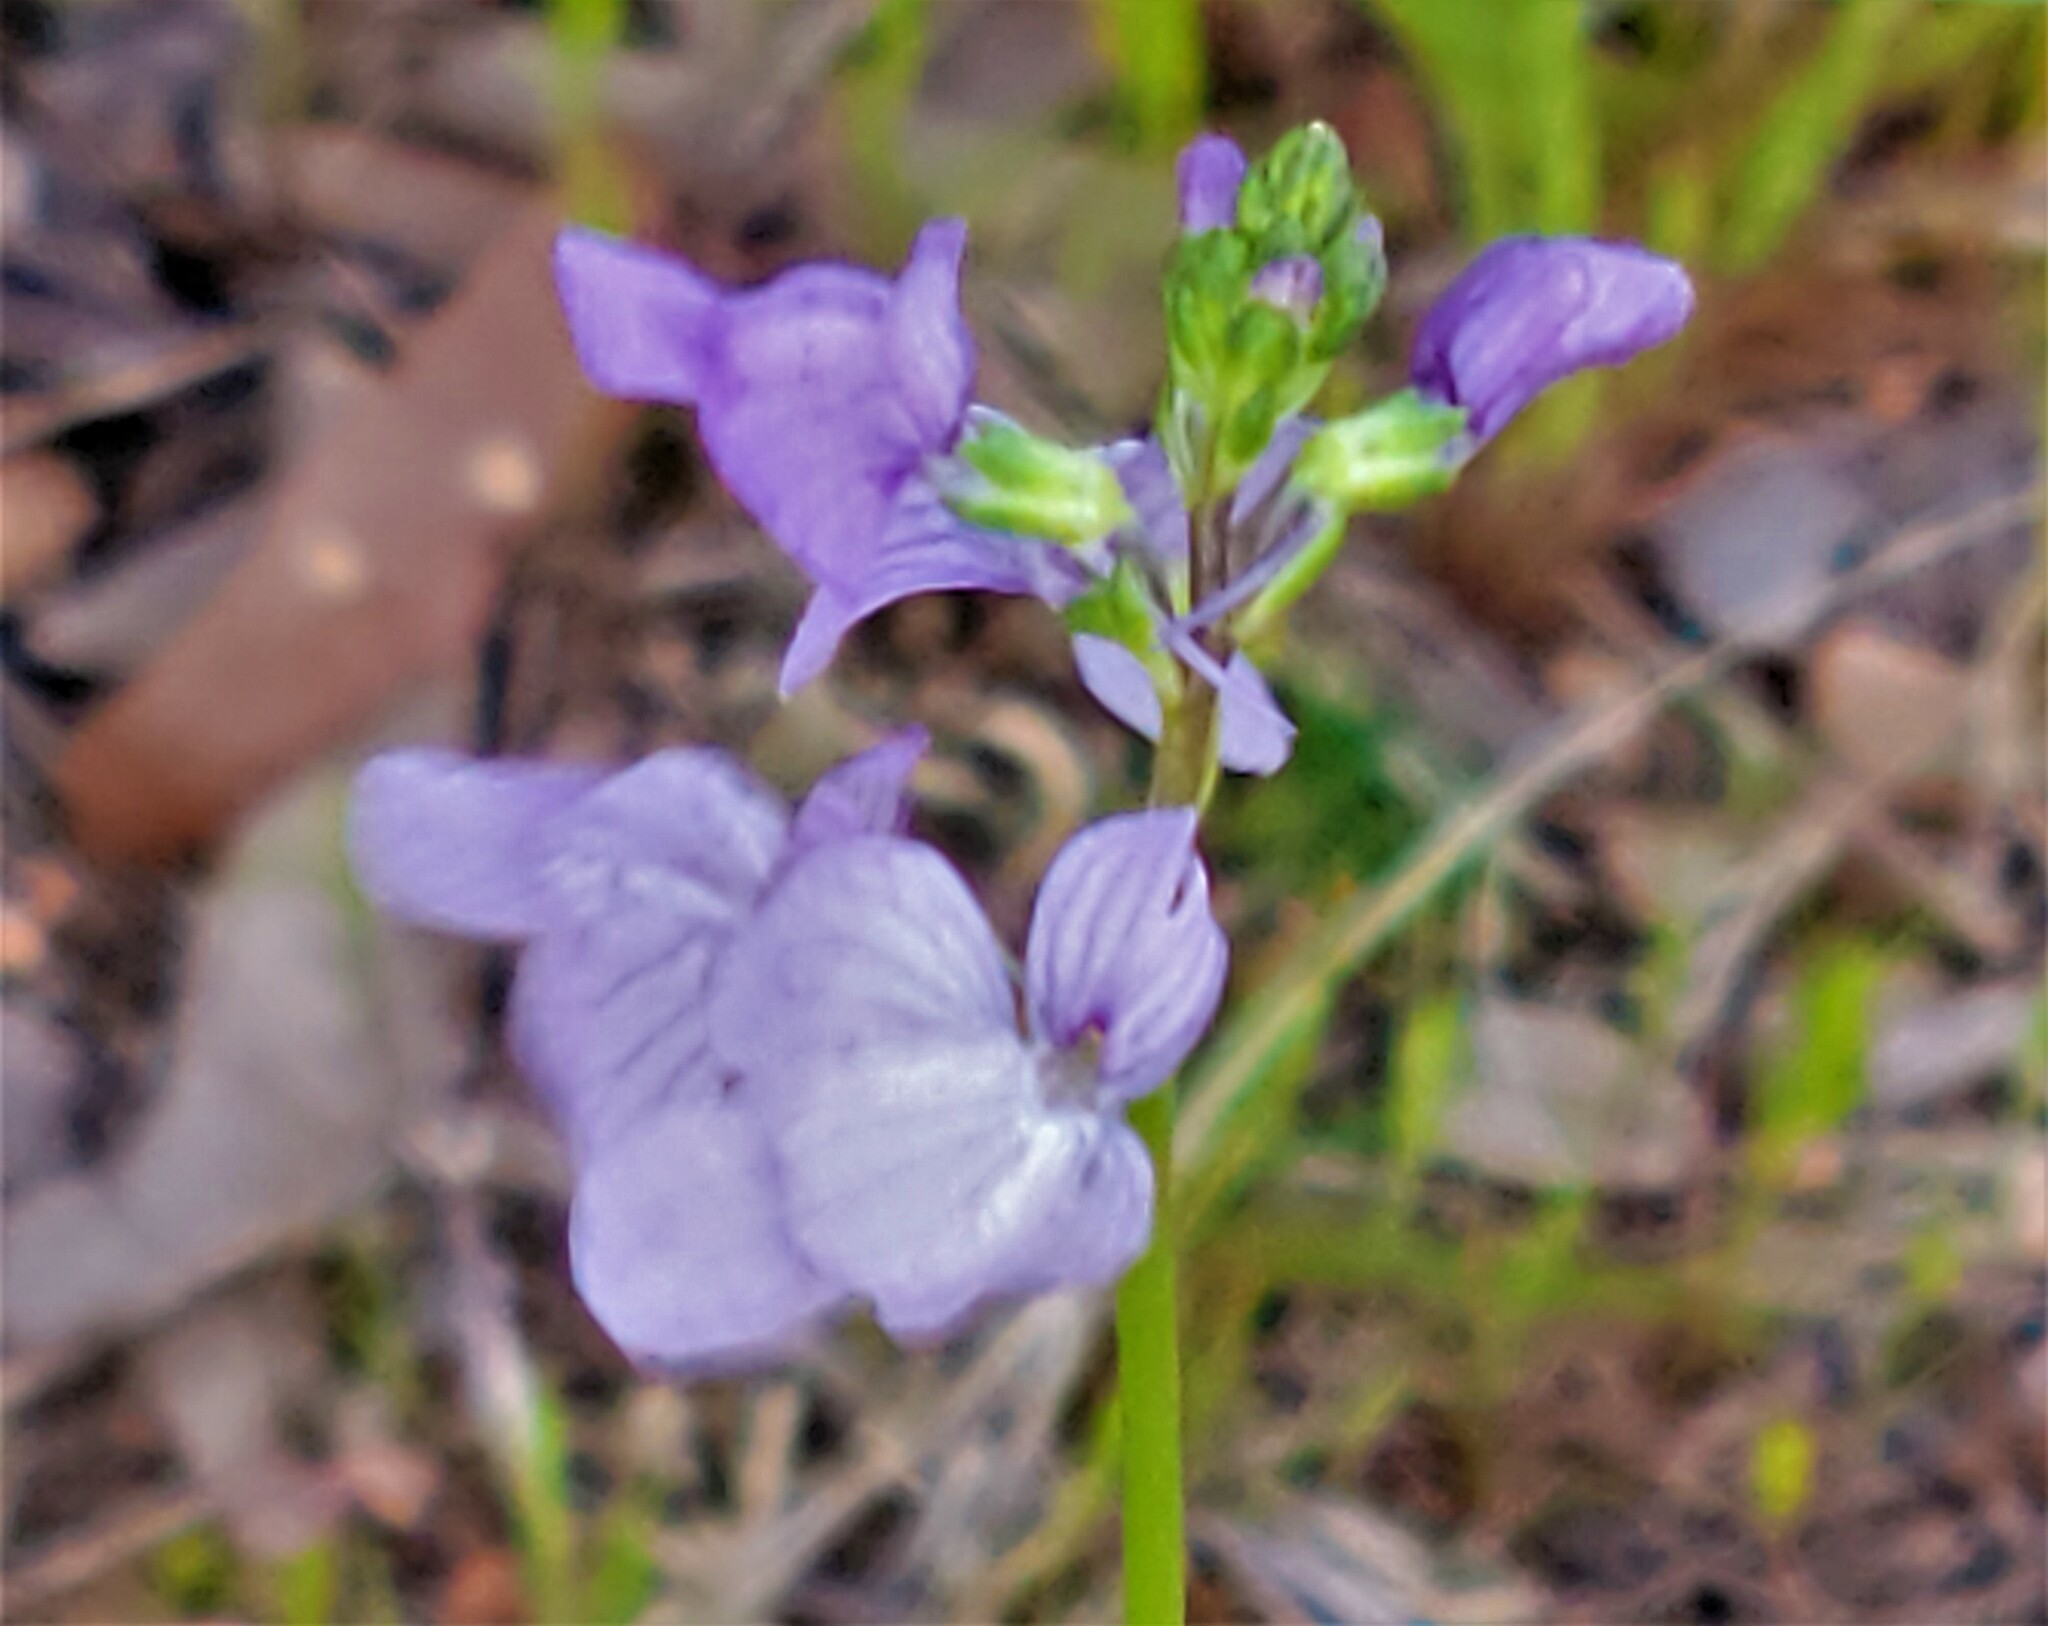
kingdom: Plantae
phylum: Tracheophyta
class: Magnoliopsida
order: Lamiales
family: Plantaginaceae
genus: Nuttallanthus
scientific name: Nuttallanthus texanus
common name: Texas toadflax
